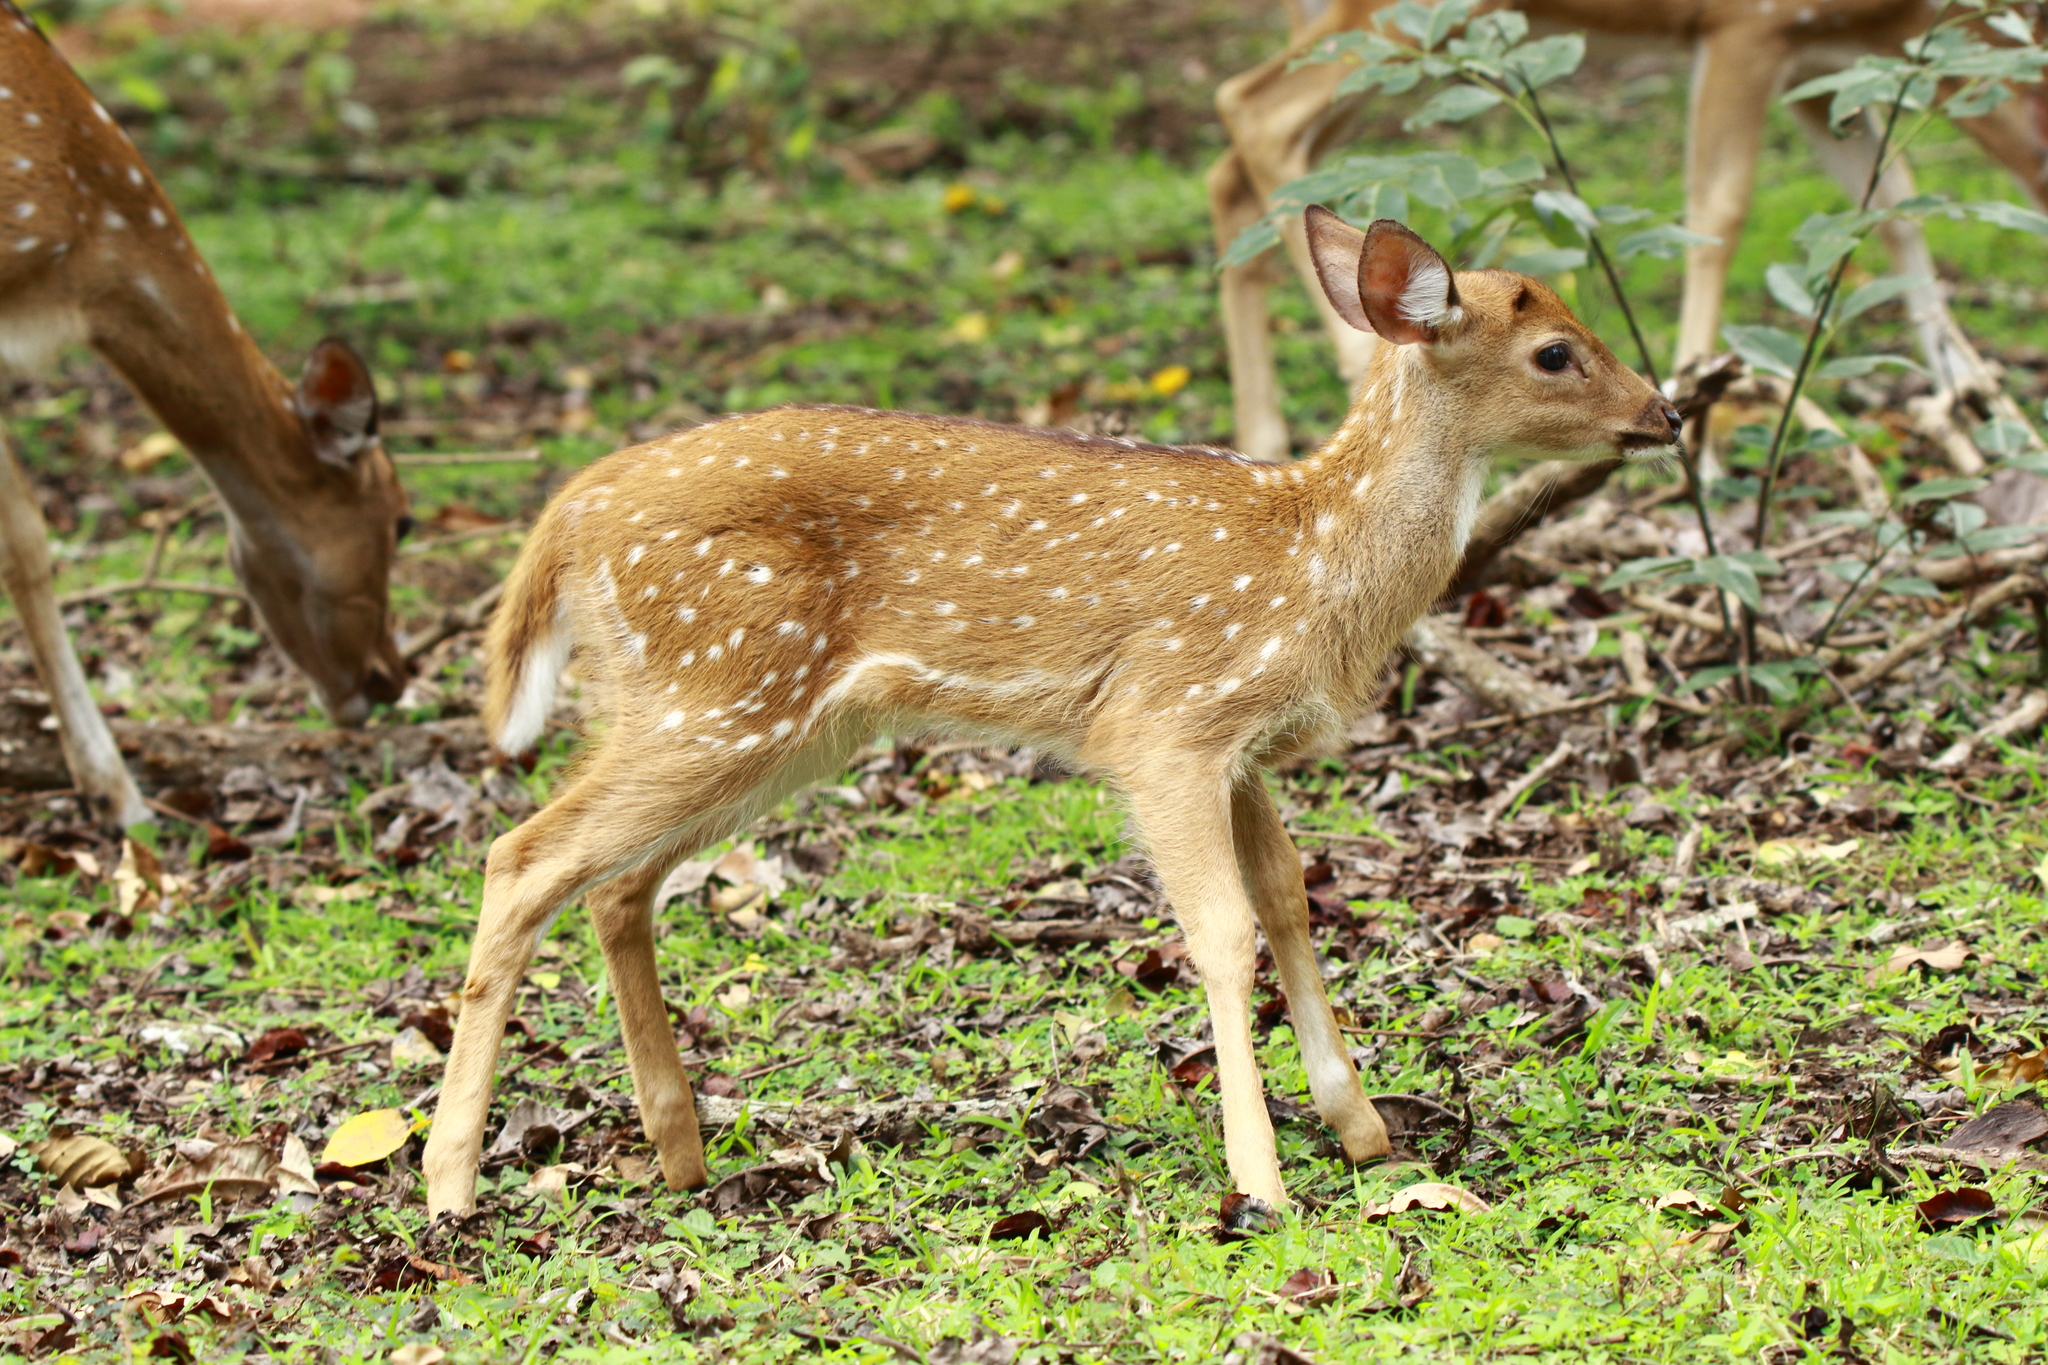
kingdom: Animalia
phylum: Chordata
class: Mammalia
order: Artiodactyla
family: Cervidae
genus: Axis
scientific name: Axis axis
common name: Chital
